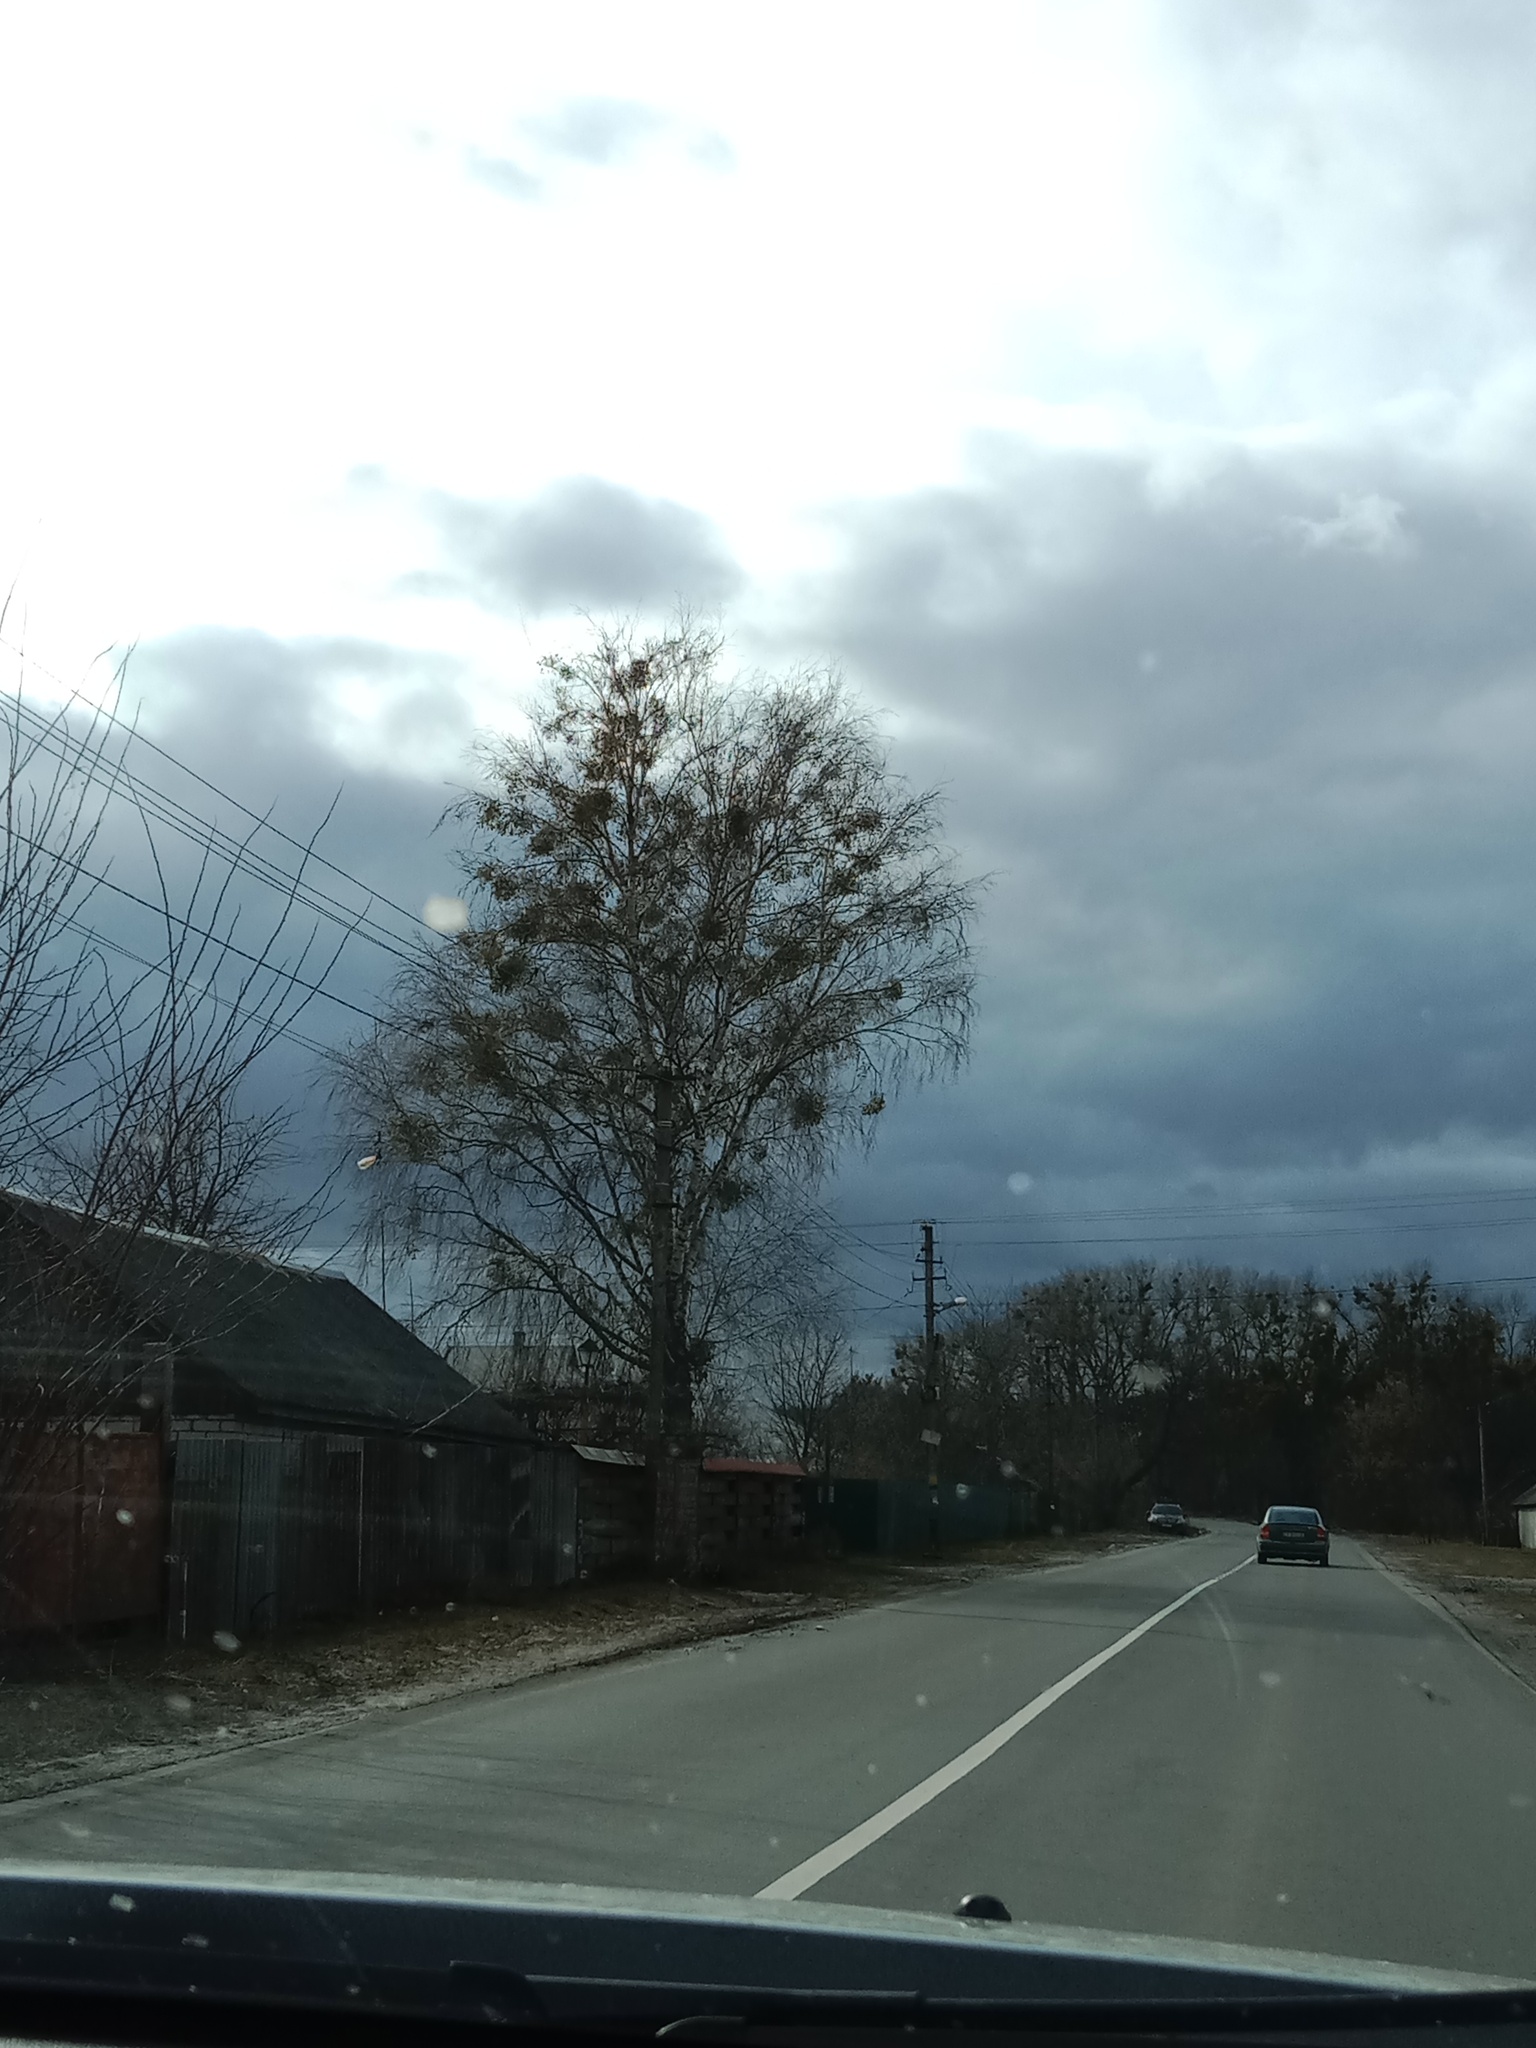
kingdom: Plantae
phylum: Tracheophyta
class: Magnoliopsida
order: Santalales
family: Viscaceae
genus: Viscum
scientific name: Viscum album
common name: Mistletoe
